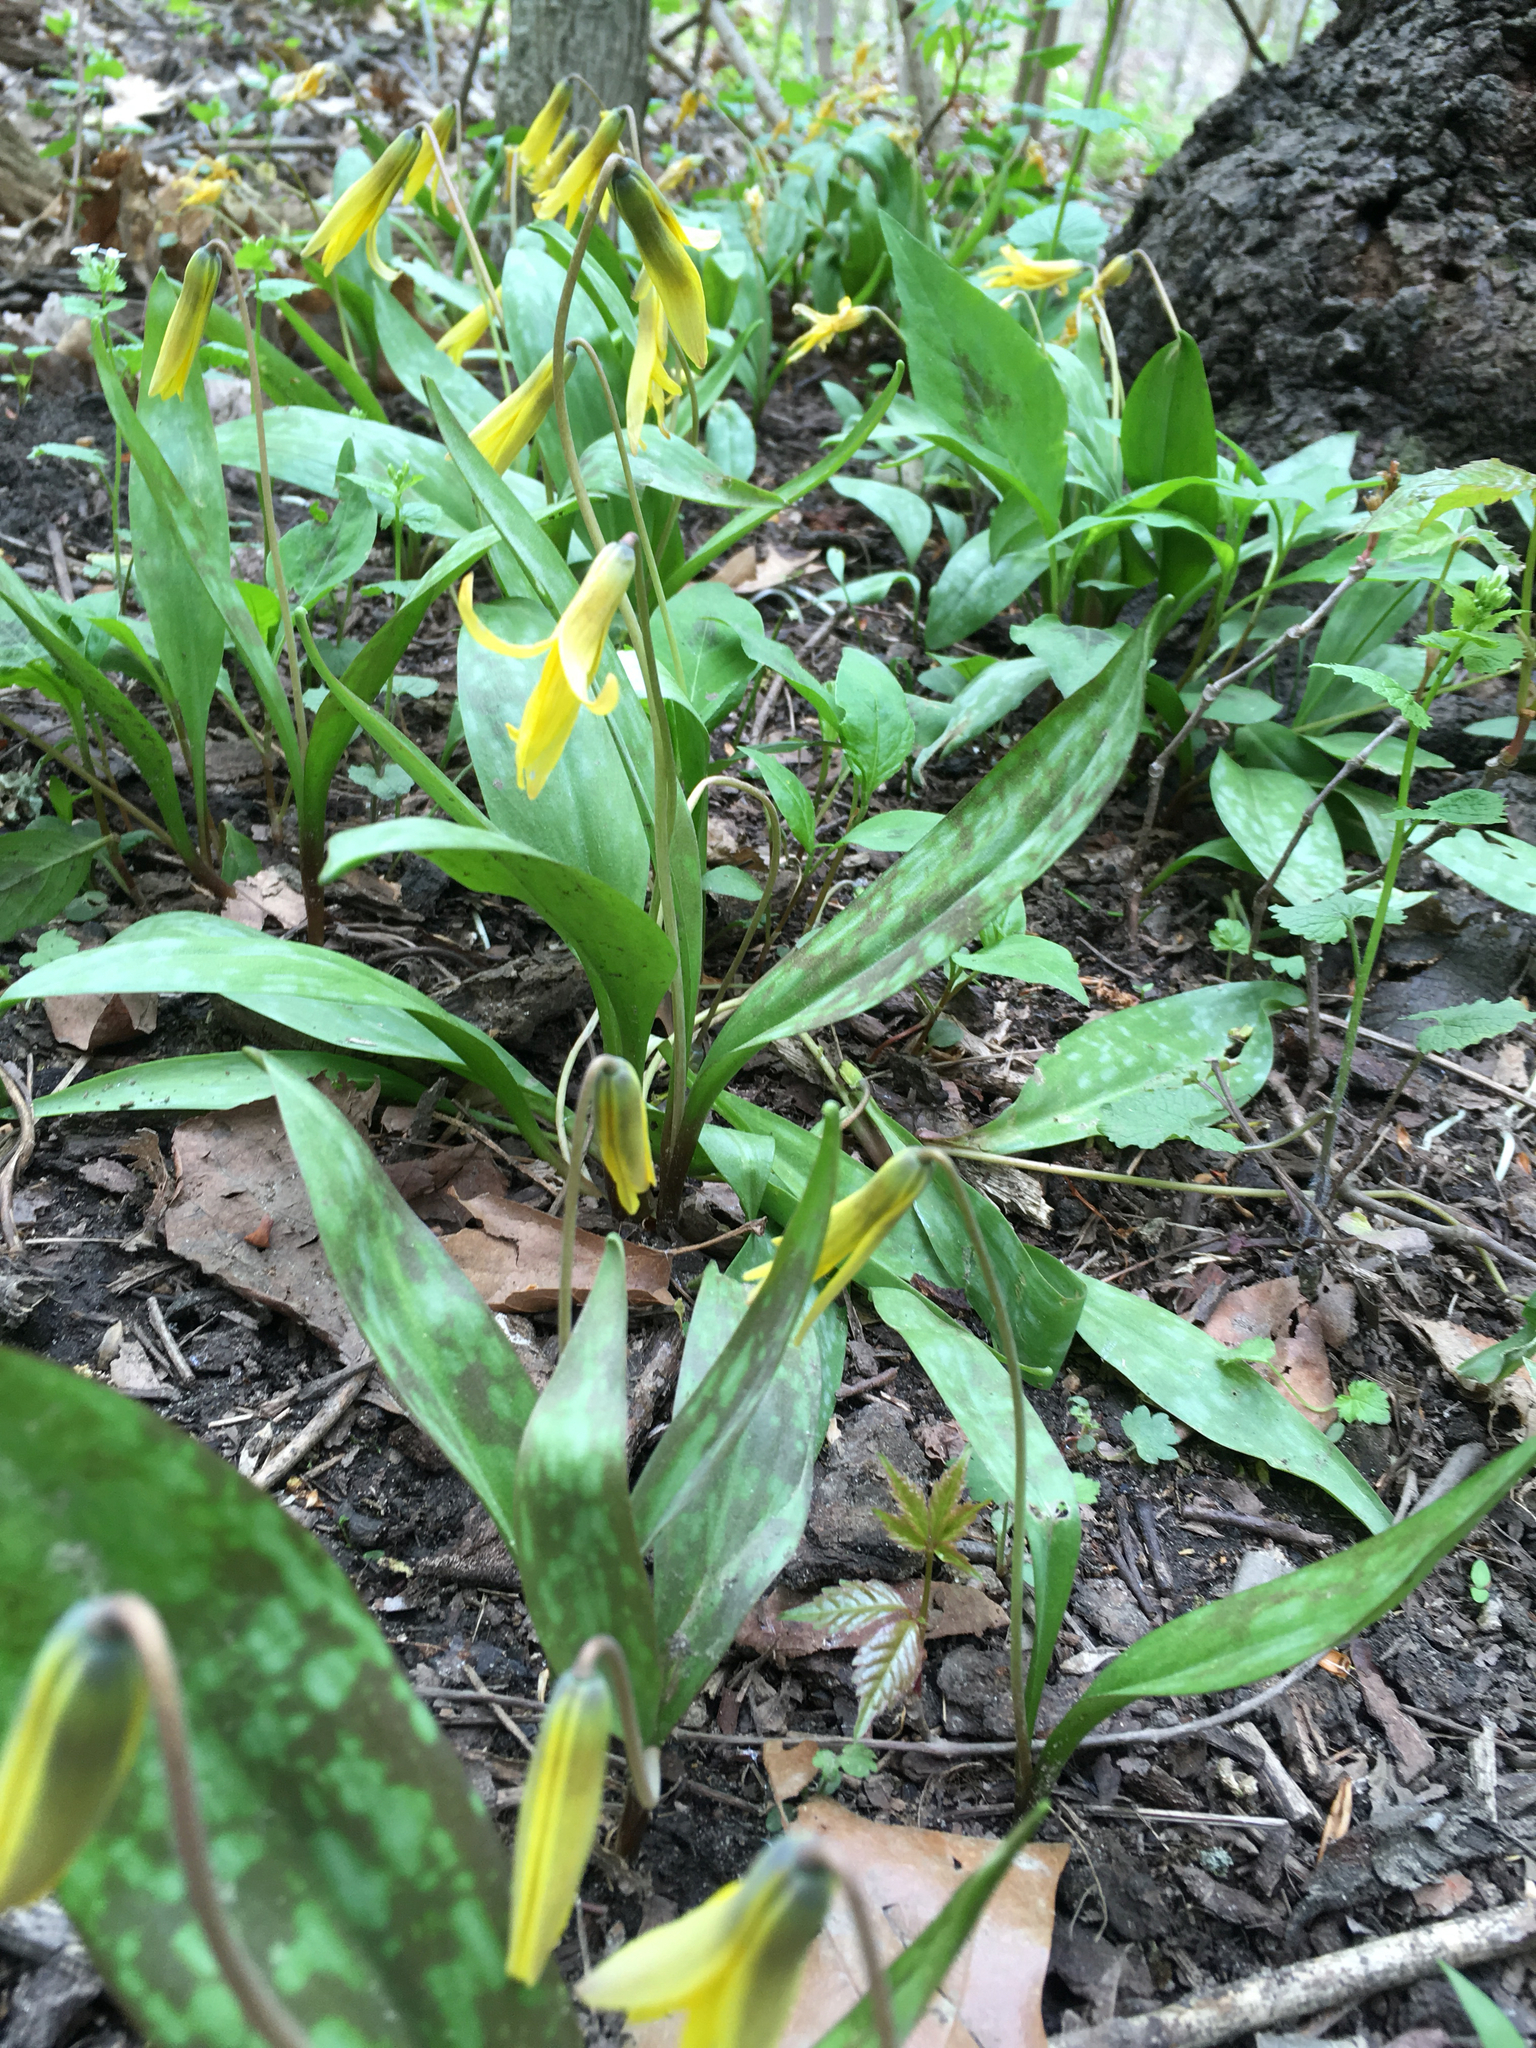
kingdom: Plantae
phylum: Tracheophyta
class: Liliopsida
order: Liliales
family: Liliaceae
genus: Erythronium
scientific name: Erythronium americanum
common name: Yellow adder's-tongue
